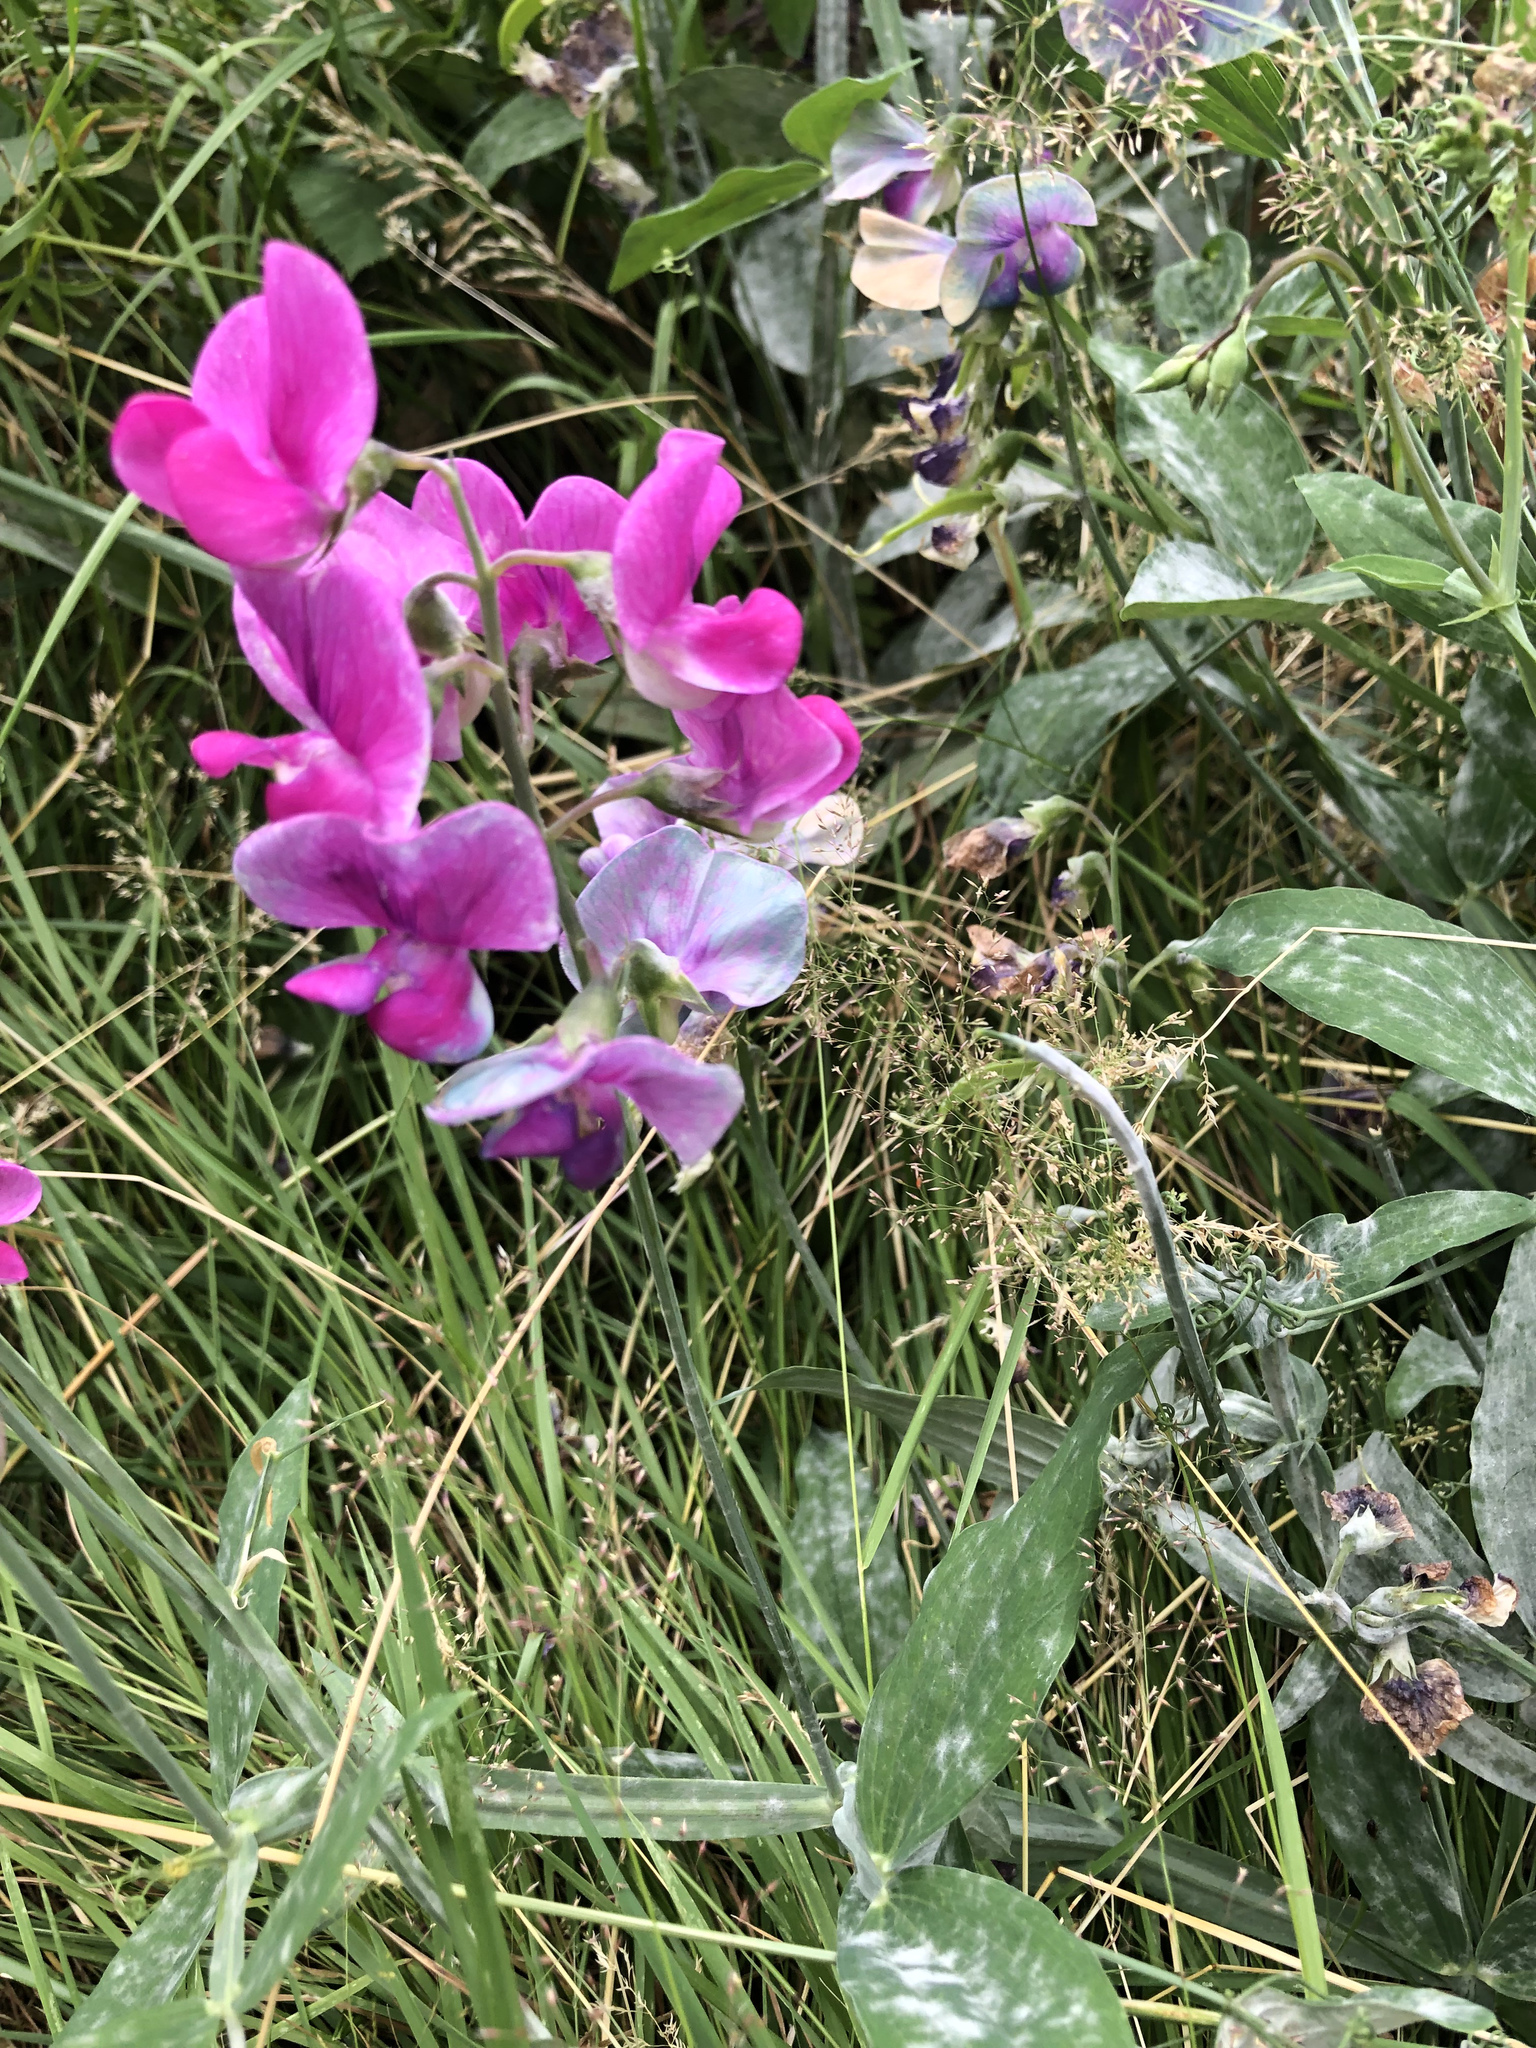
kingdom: Plantae
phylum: Tracheophyta
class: Magnoliopsida
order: Fabales
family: Fabaceae
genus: Lathyrus
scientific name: Lathyrus latifolius
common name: Perennial pea
